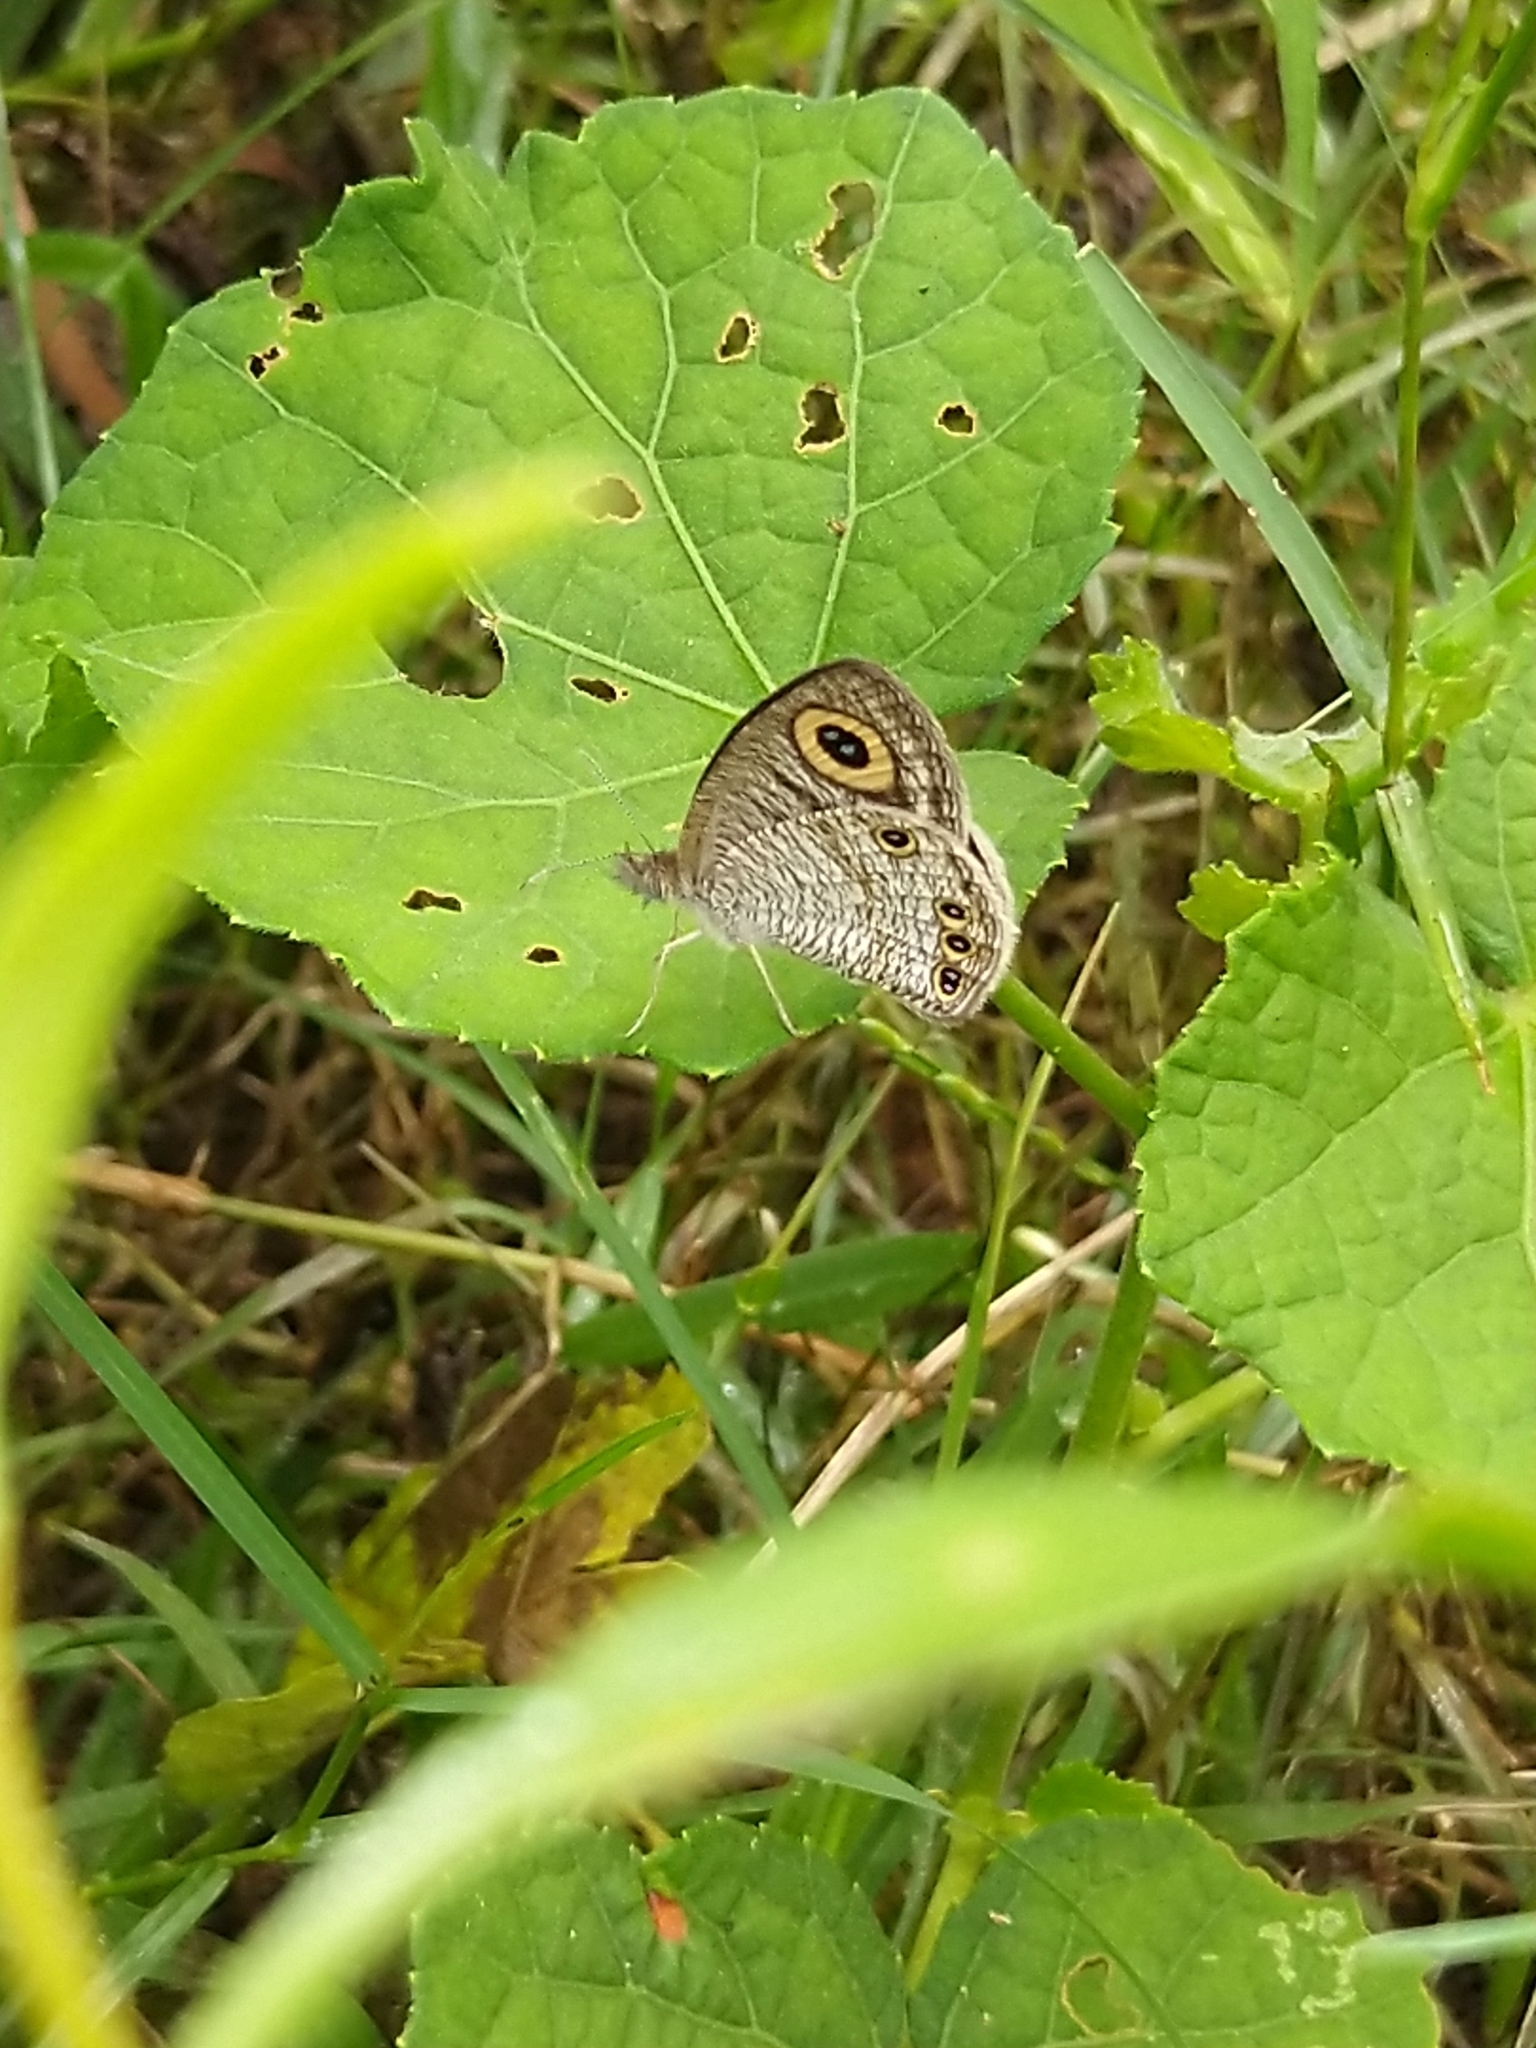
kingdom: Animalia
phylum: Arthropoda
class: Insecta
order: Lepidoptera
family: Nymphalidae
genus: Ypthima
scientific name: Ypthima huebneri
